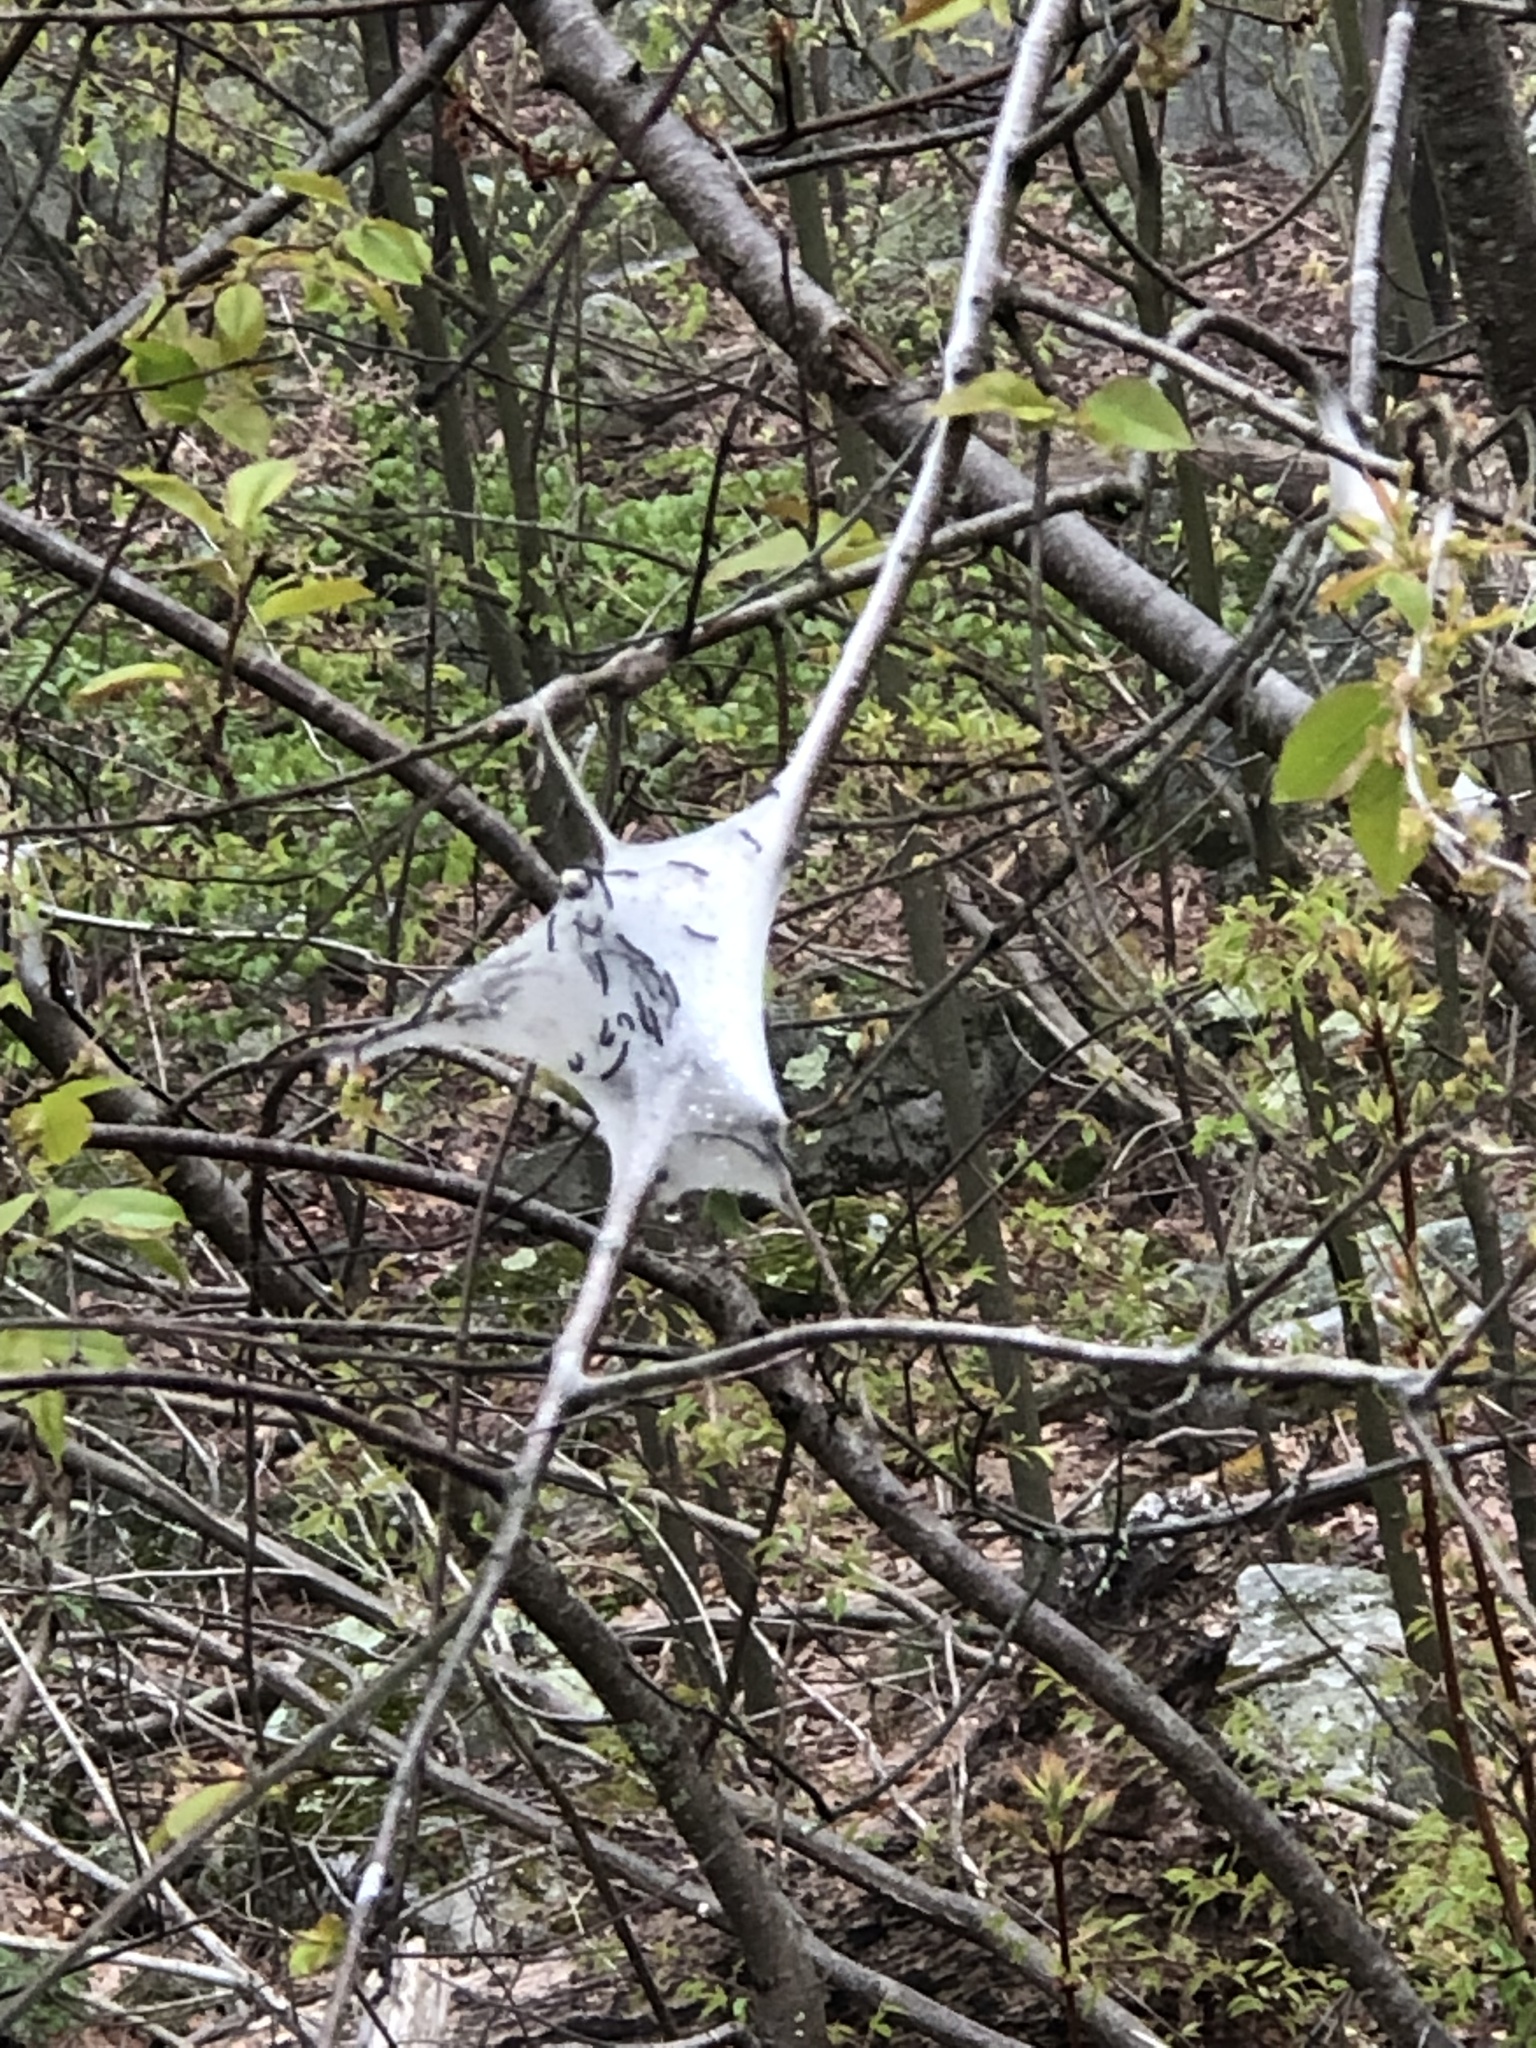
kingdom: Animalia
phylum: Arthropoda
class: Insecta
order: Lepidoptera
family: Lasiocampidae
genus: Malacosoma
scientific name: Malacosoma americana
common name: Eastern tent caterpillar moth
